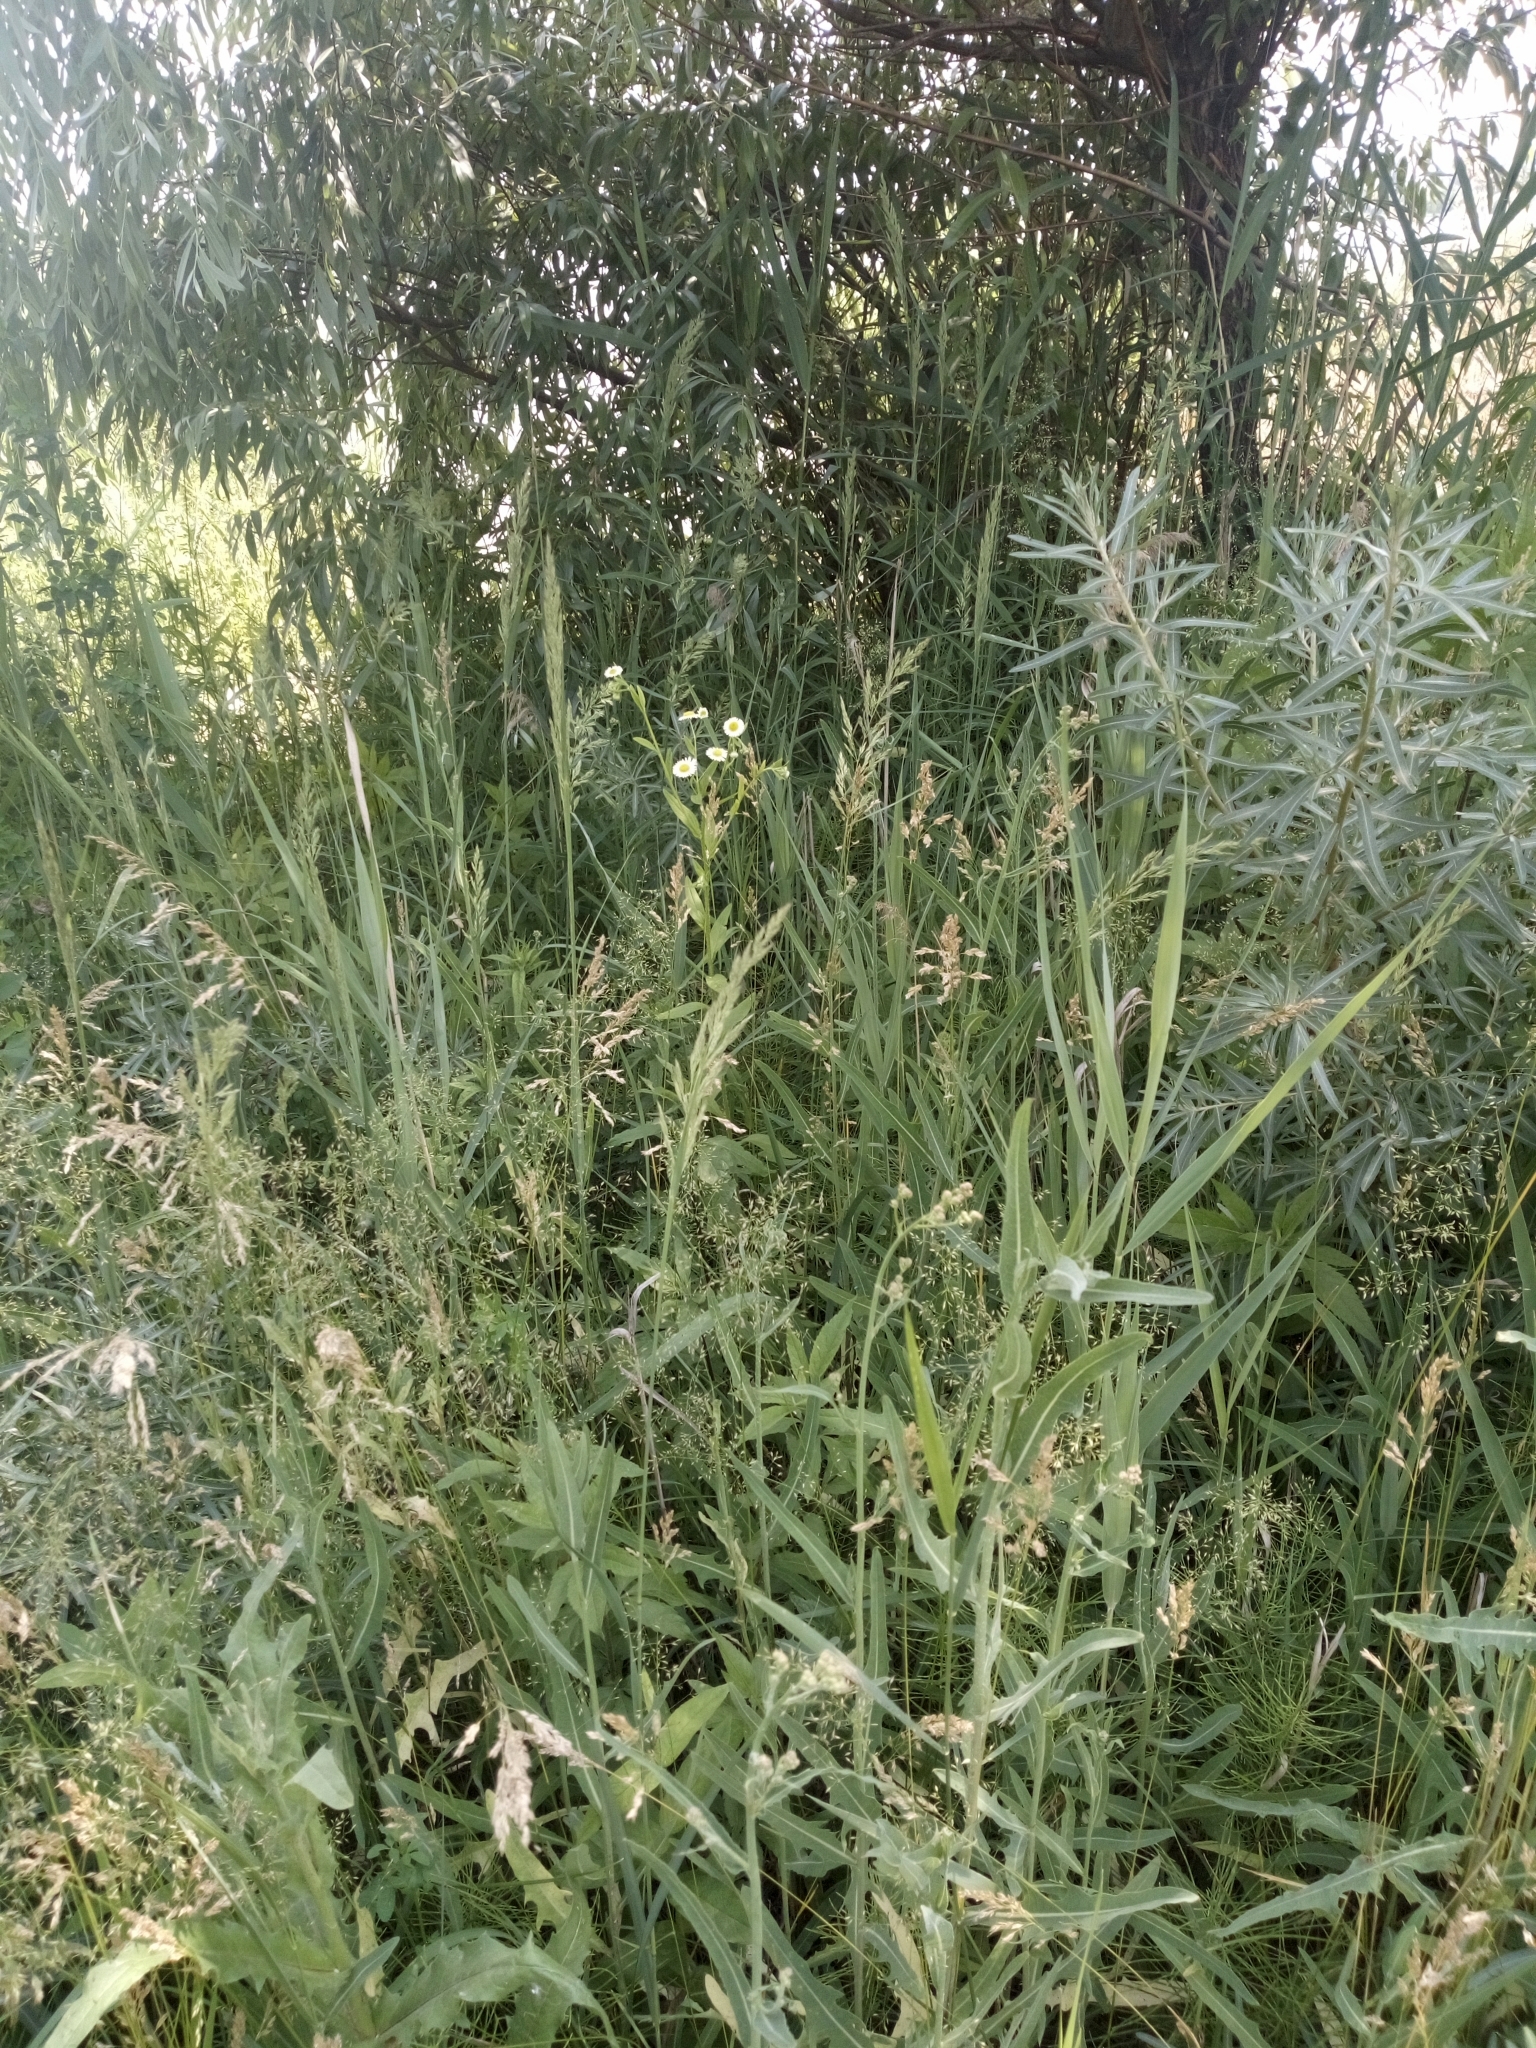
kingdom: Plantae
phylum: Tracheophyta
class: Magnoliopsida
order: Asterales
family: Asteraceae
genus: Erigeron
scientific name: Erigeron annuus
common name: Tall fleabane
